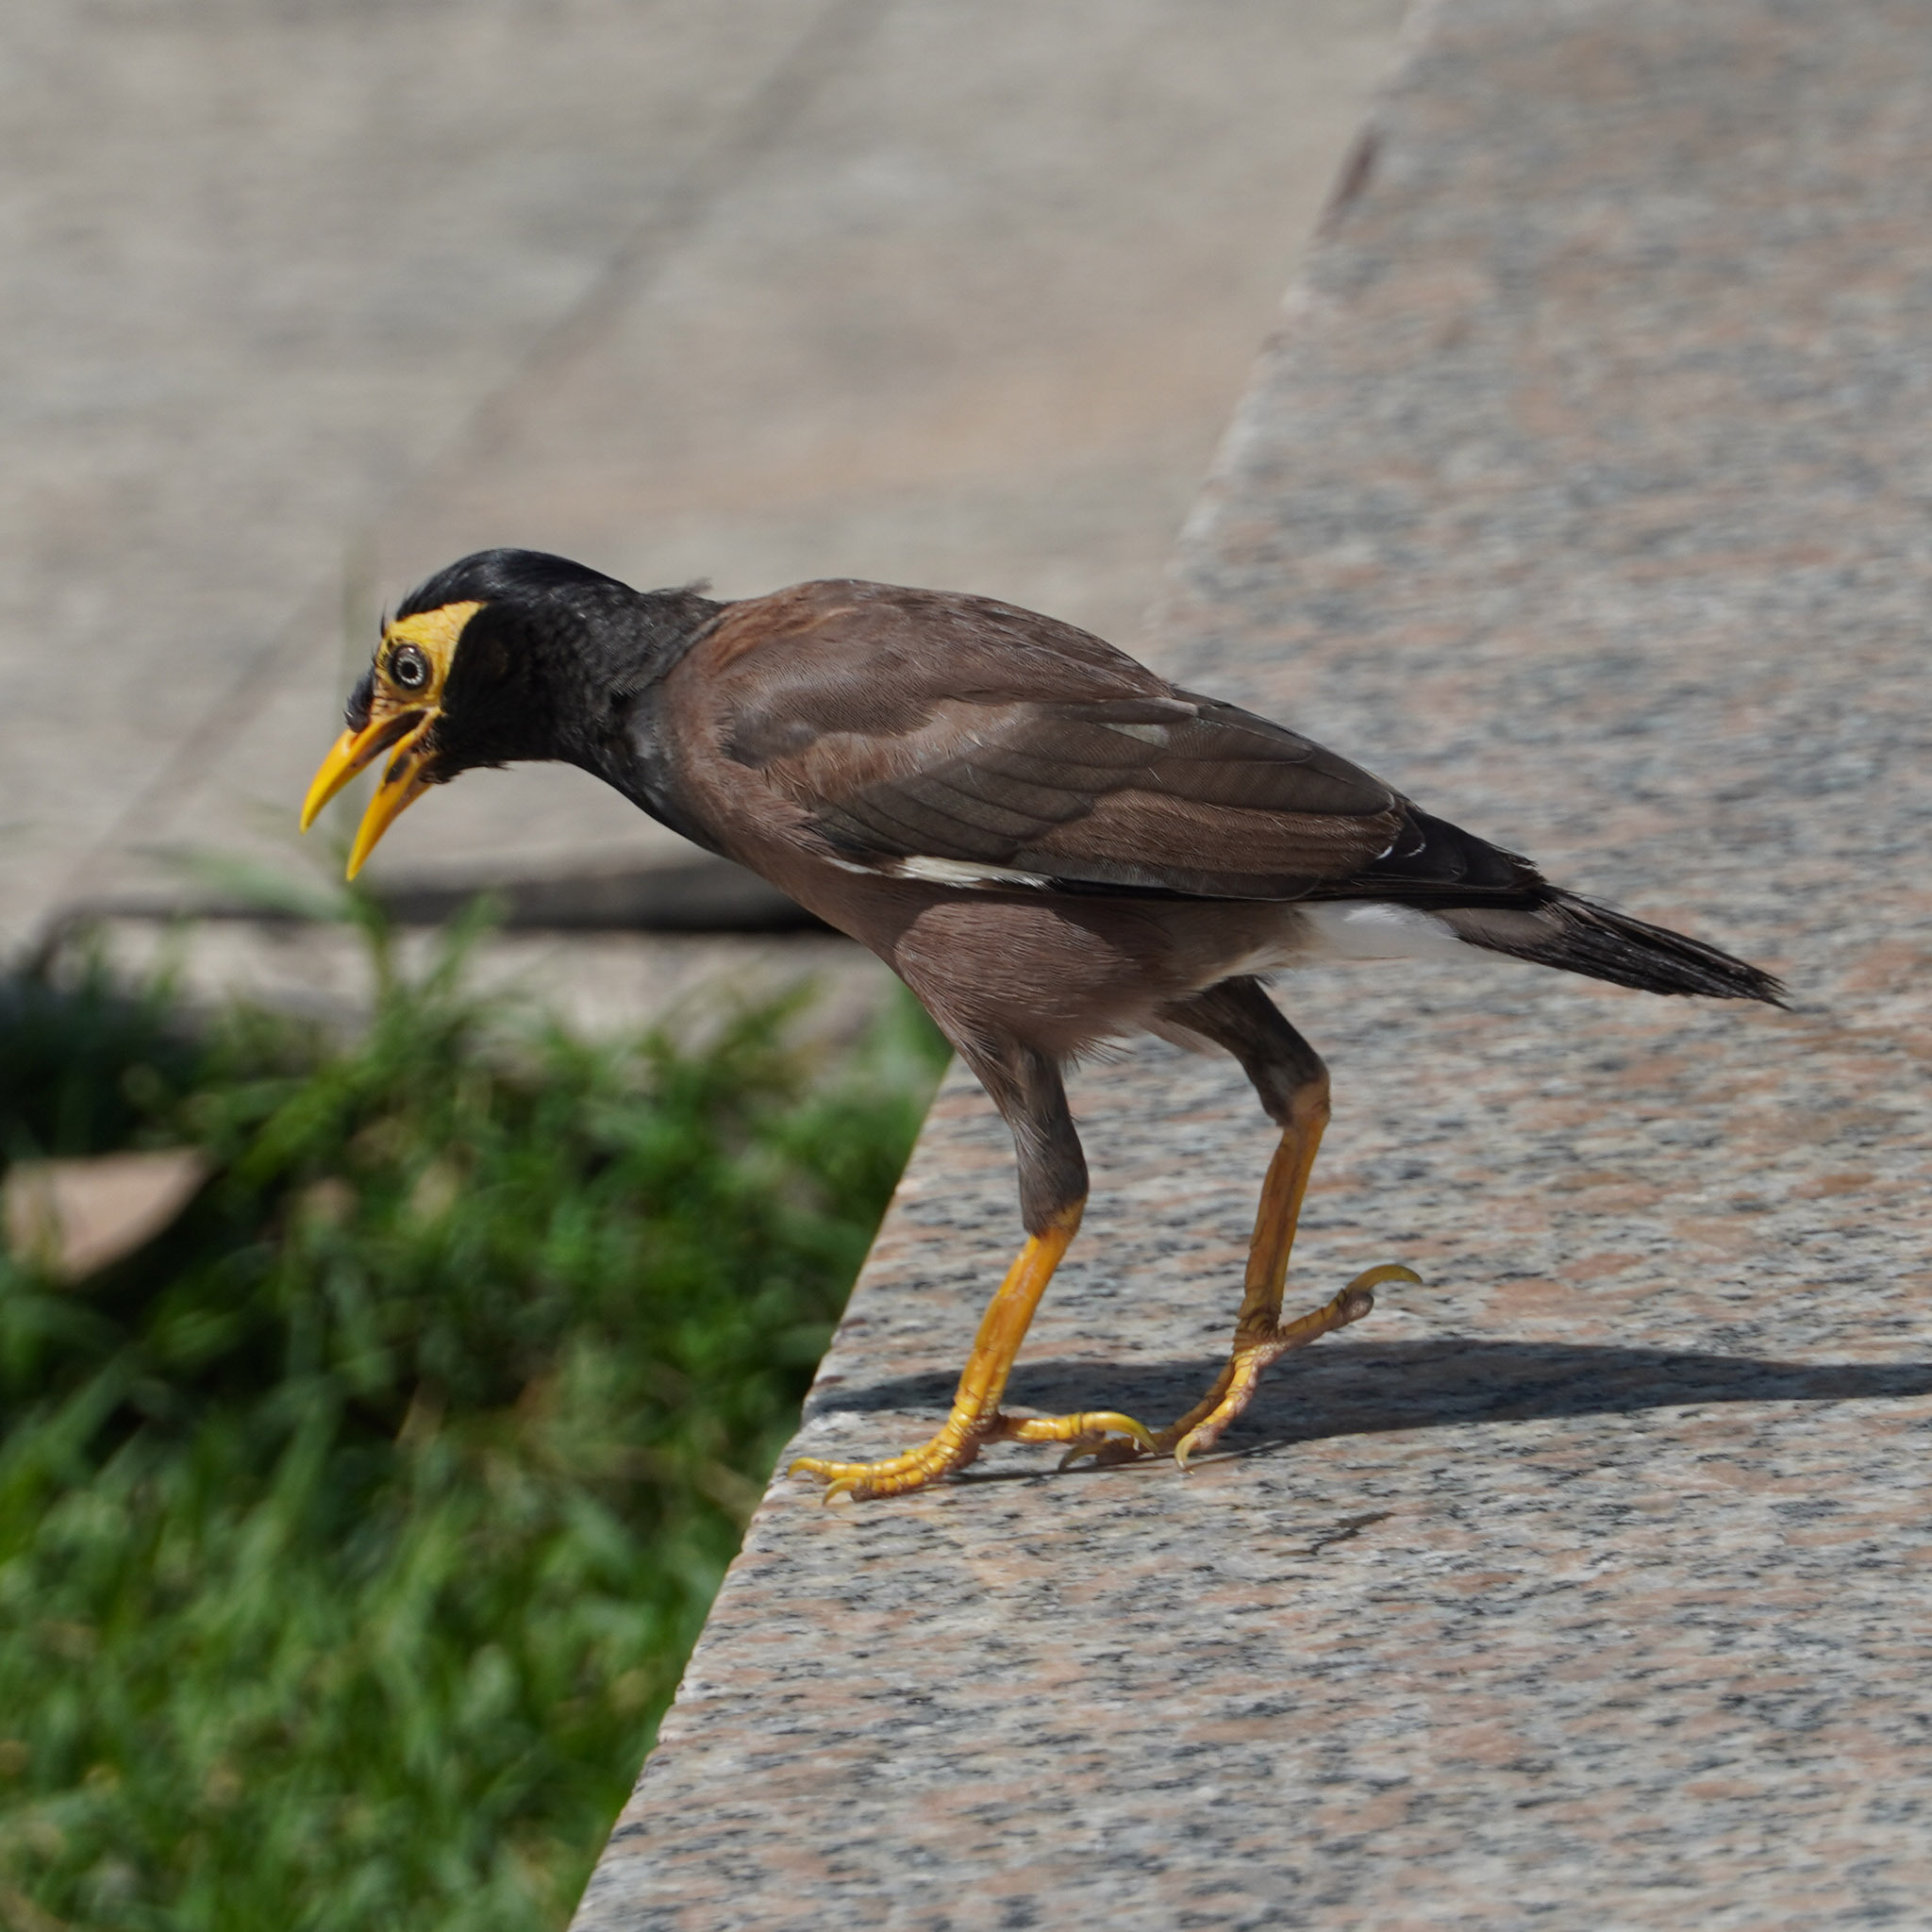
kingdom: Animalia
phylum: Chordata
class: Aves
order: Passeriformes
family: Sturnidae
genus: Acridotheres
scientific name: Acridotheres tristis
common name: Common myna
